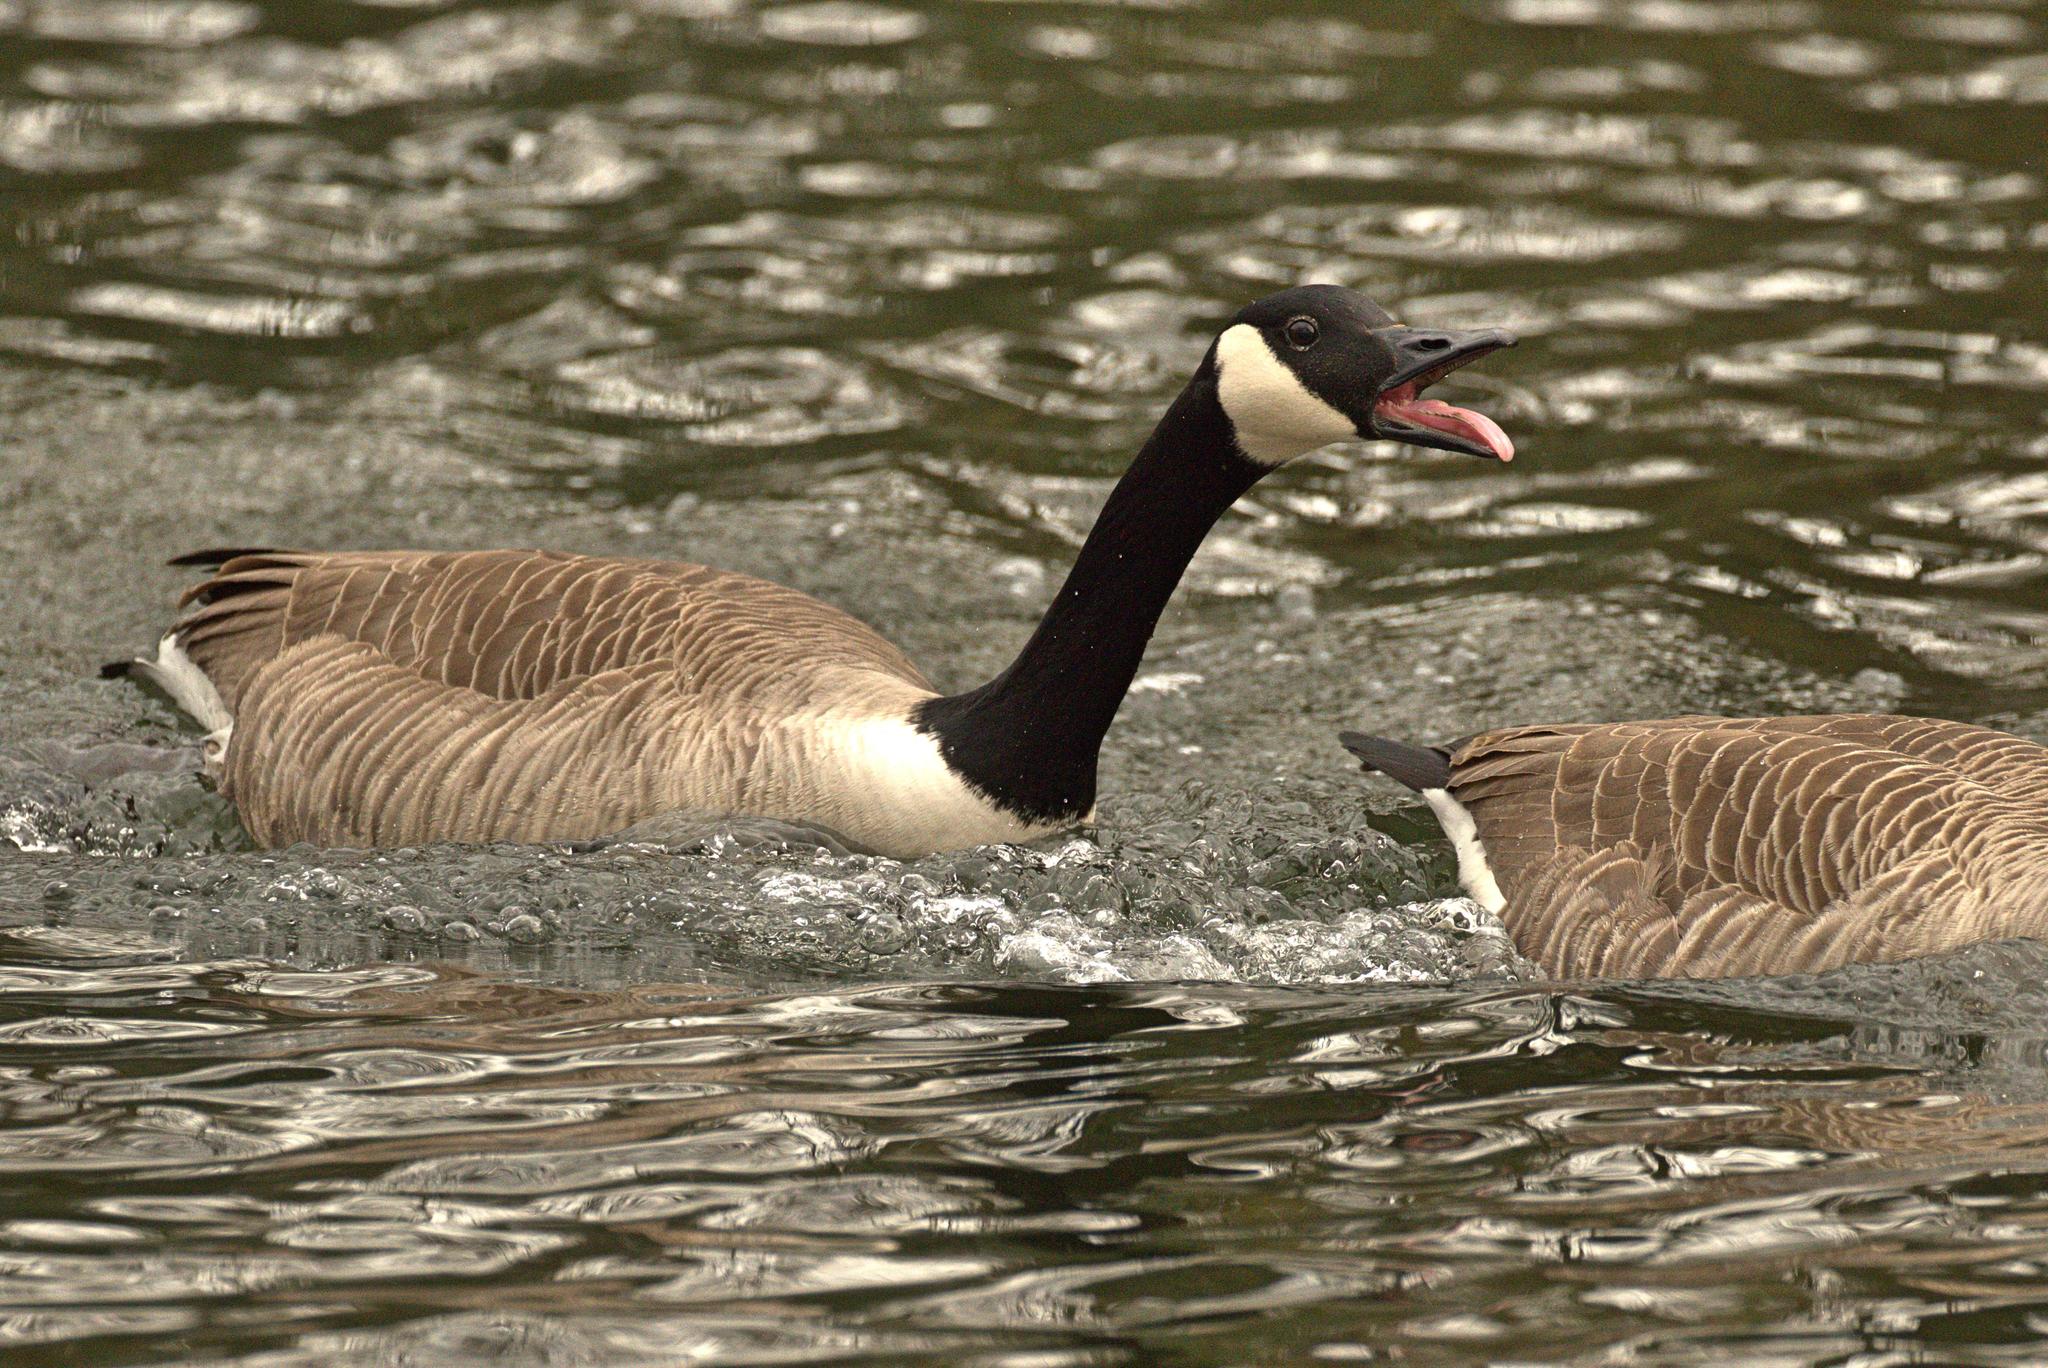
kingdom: Animalia
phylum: Chordata
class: Aves
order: Anseriformes
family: Anatidae
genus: Branta
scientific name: Branta canadensis
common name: Canada goose
